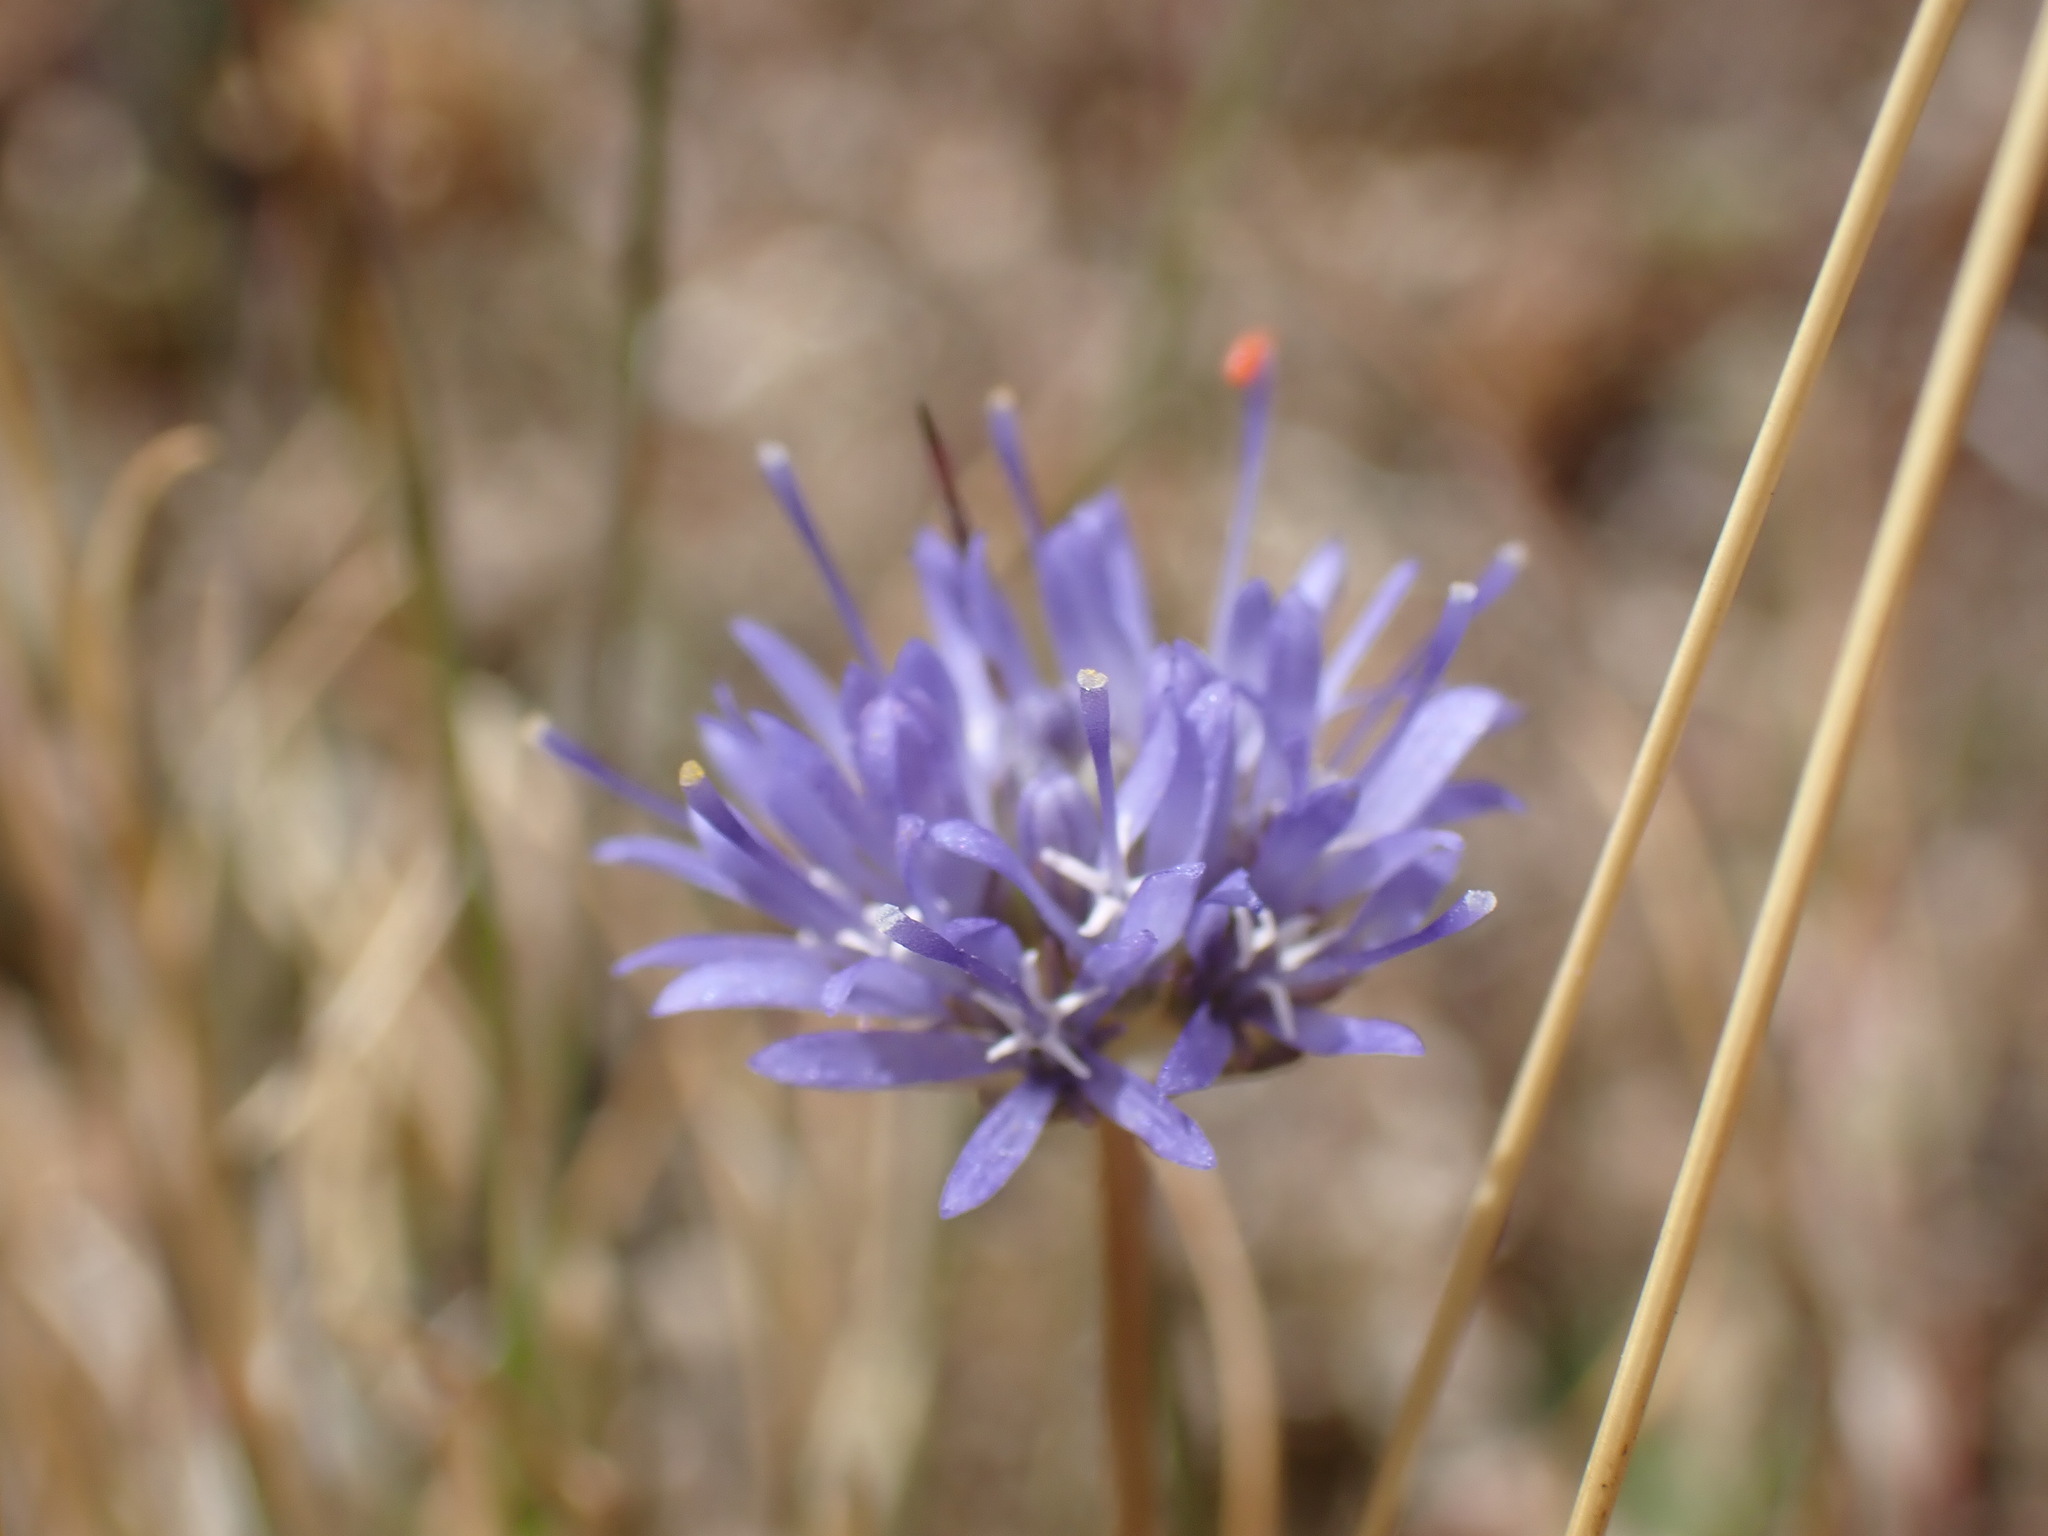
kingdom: Plantae
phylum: Tracheophyta
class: Magnoliopsida
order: Asterales
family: Campanulaceae
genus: Jasione
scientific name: Jasione montana
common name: Sheep's-bit
